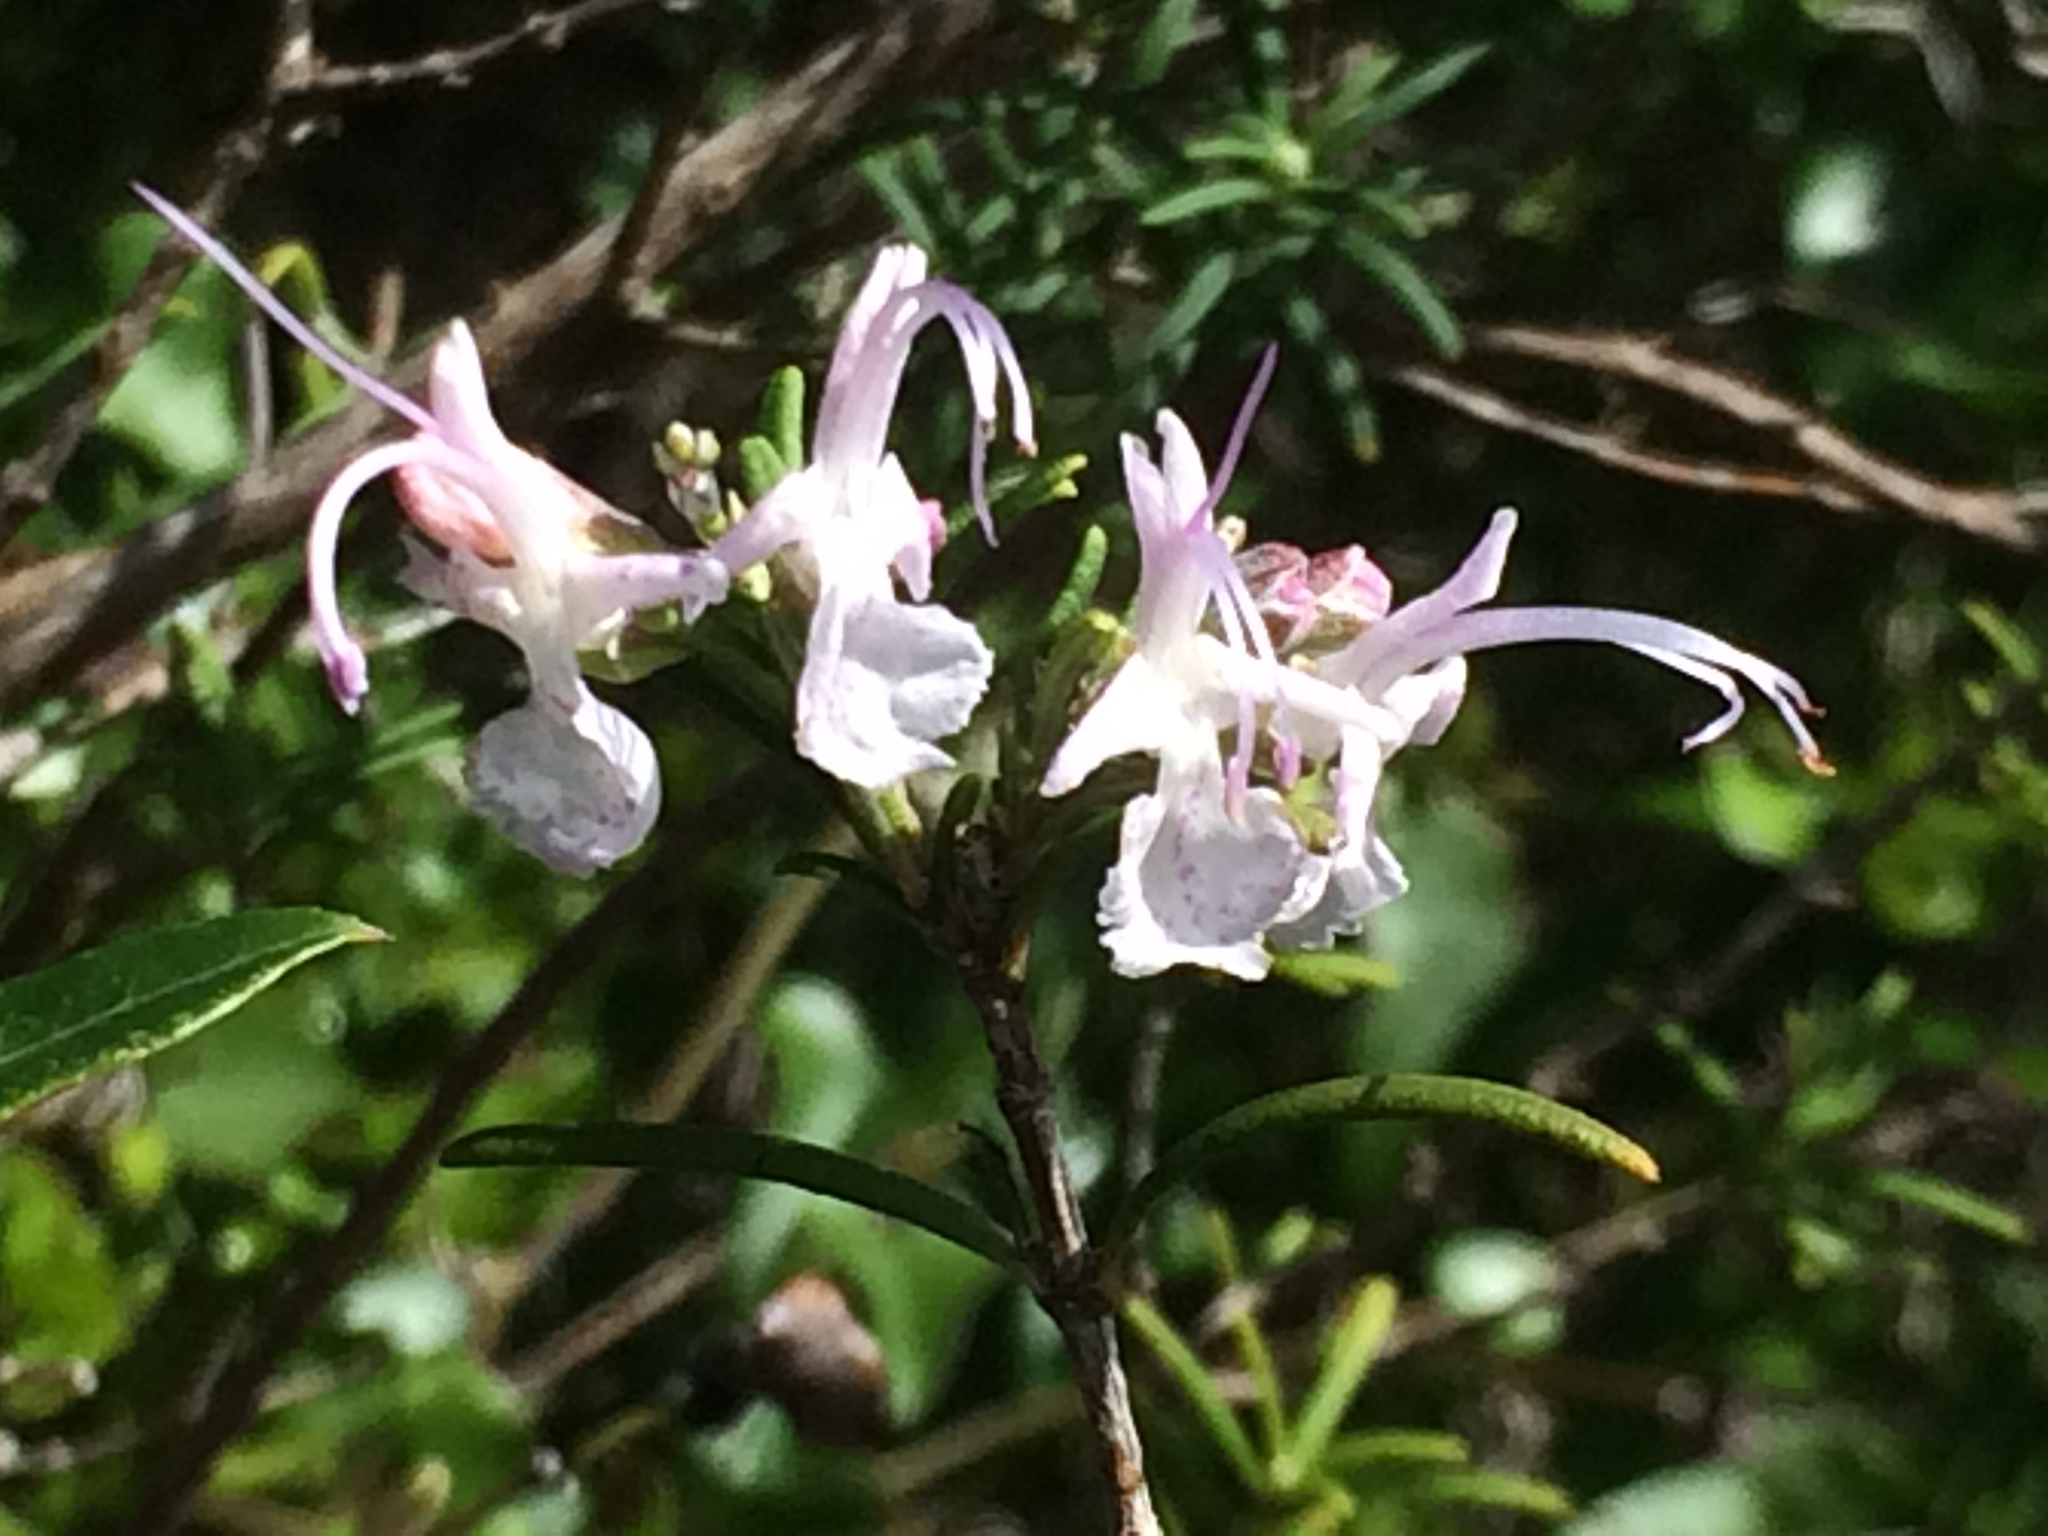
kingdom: Plantae
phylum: Tracheophyta
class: Magnoliopsida
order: Lamiales
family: Lamiaceae
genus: Salvia
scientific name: Salvia rosmarinus
